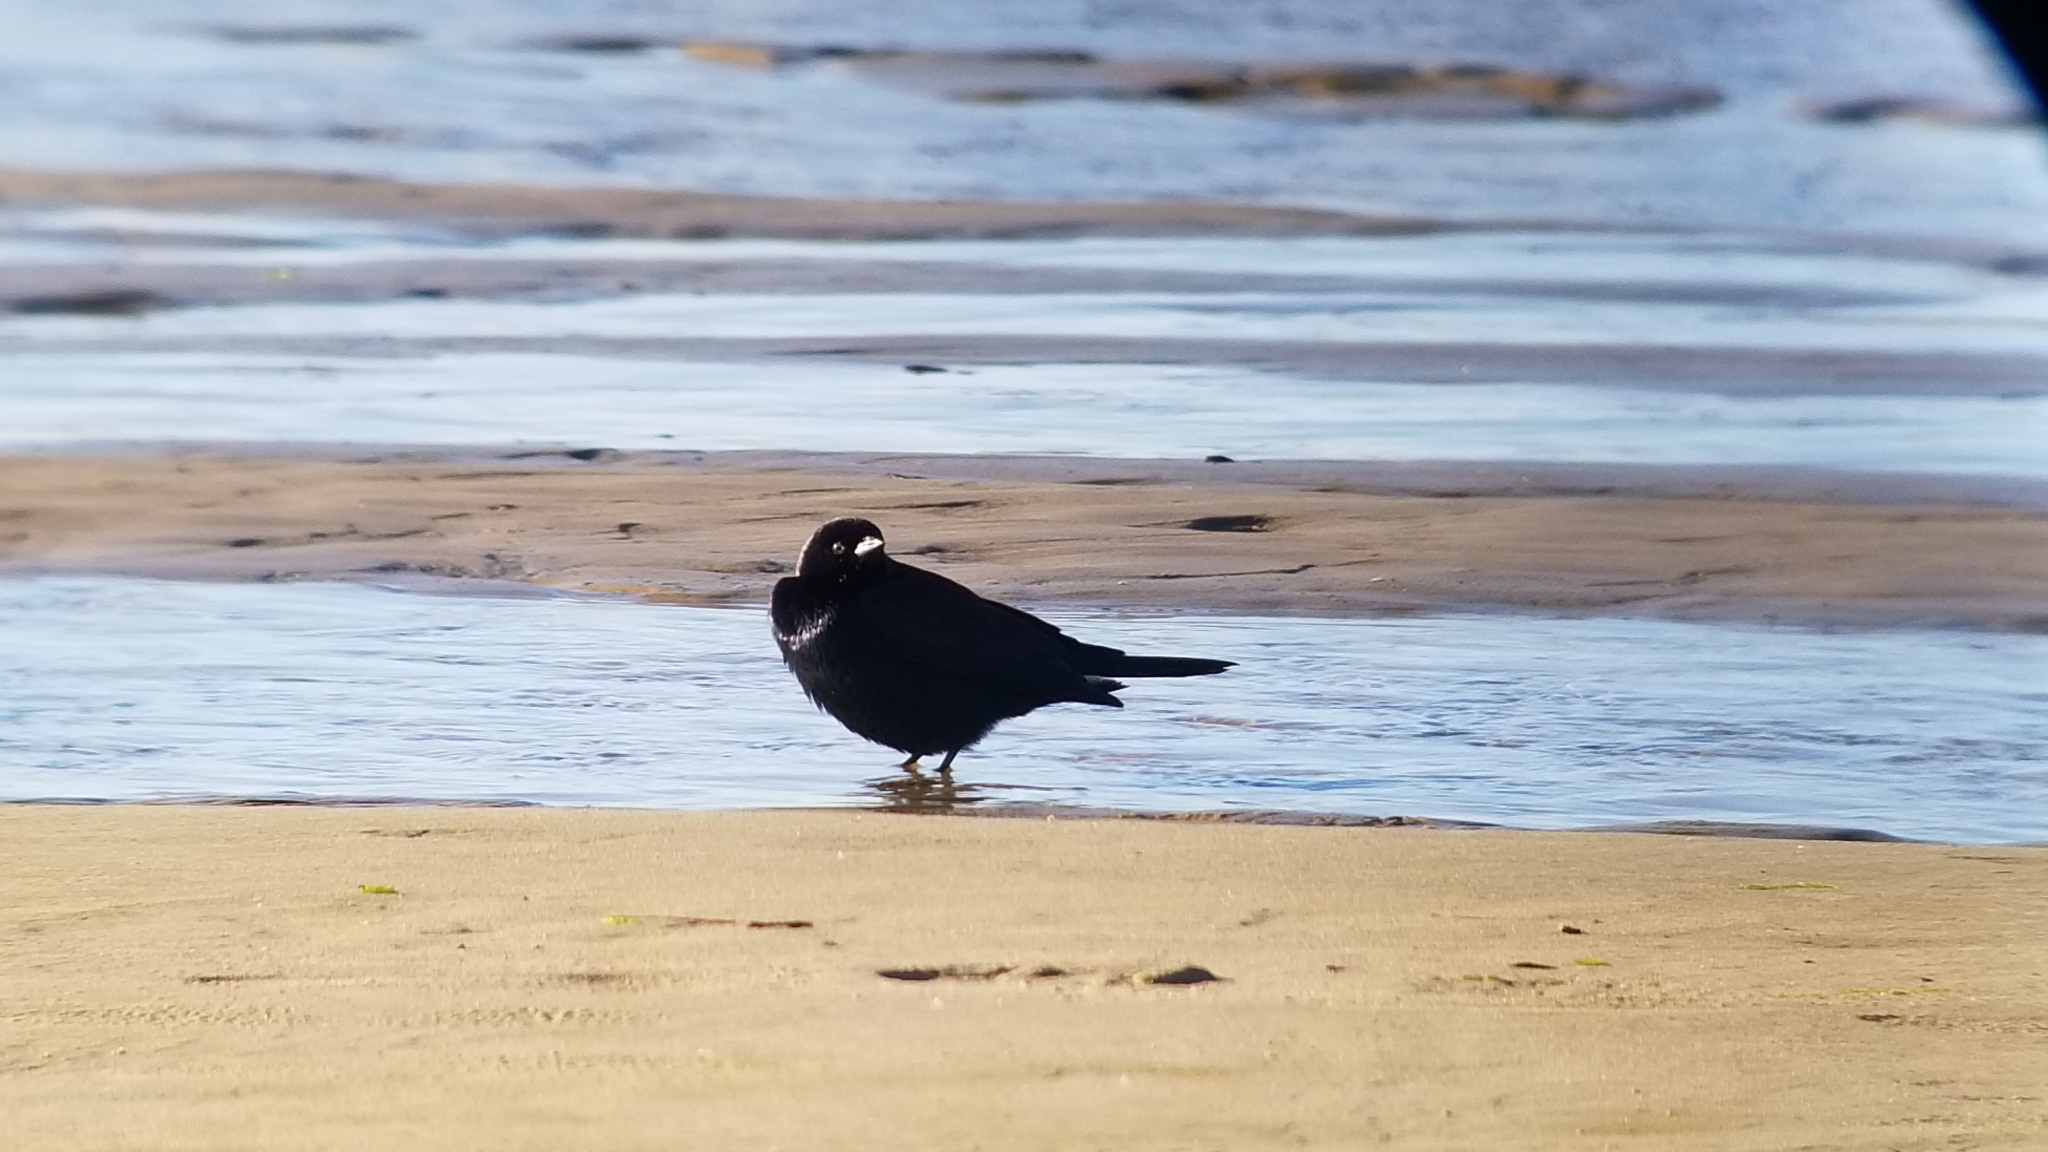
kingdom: Animalia
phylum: Chordata
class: Aves
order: Passeriformes
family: Icteridae
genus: Euphagus
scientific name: Euphagus cyanocephalus
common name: Brewer's blackbird
